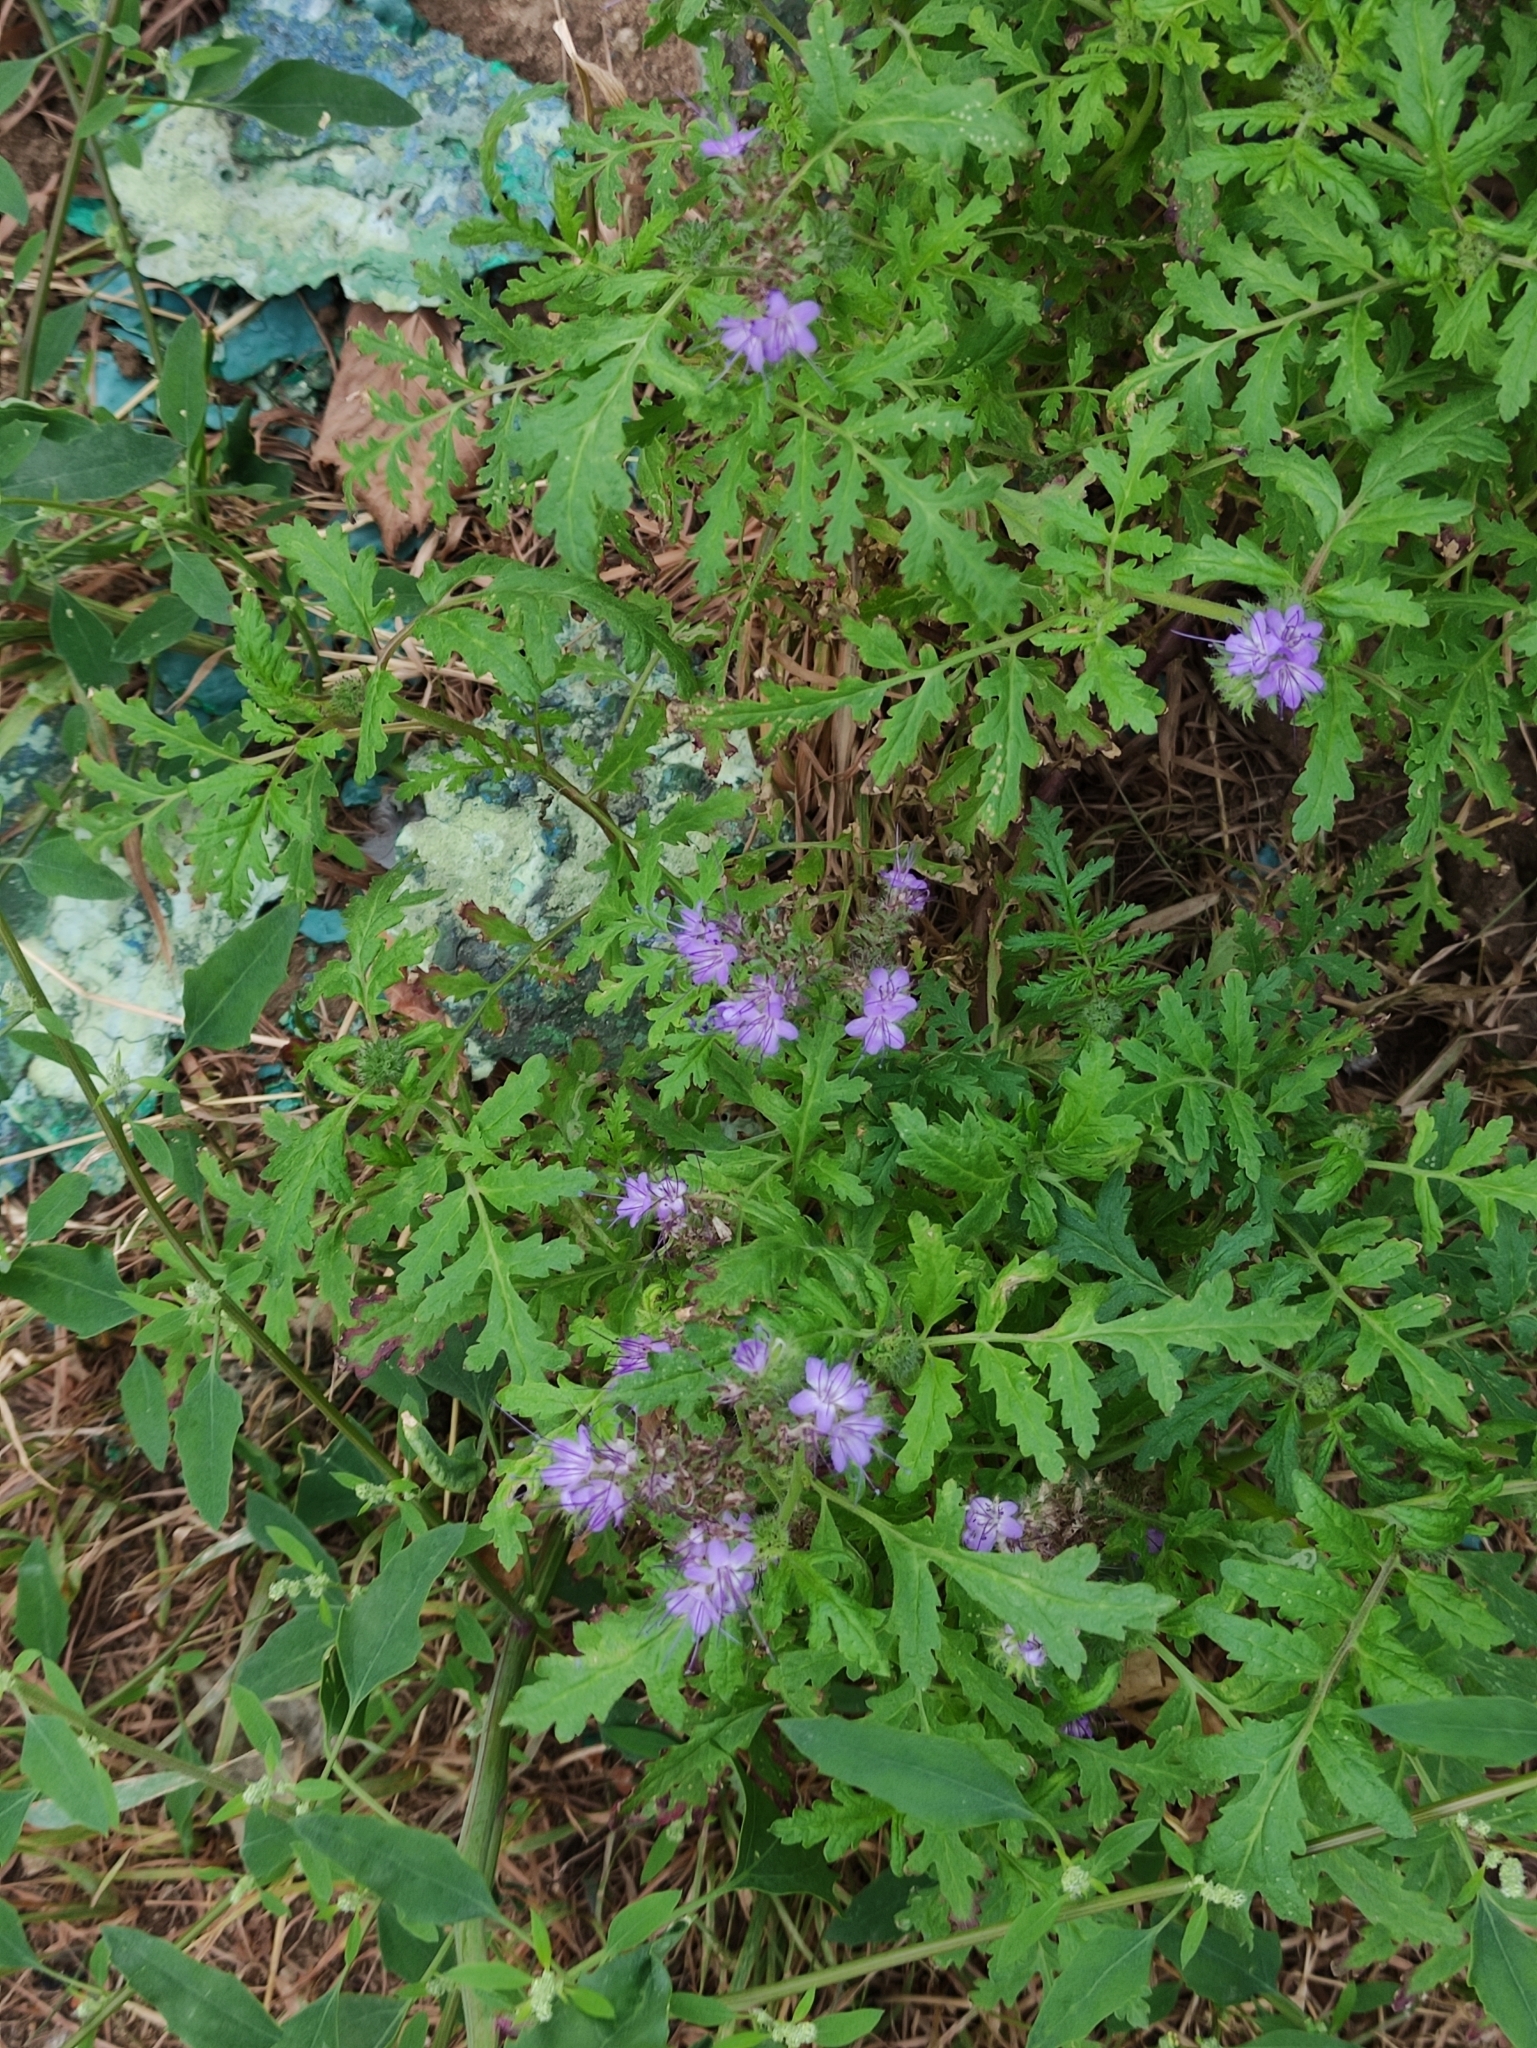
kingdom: Plantae
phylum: Tracheophyta
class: Magnoliopsida
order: Boraginales
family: Hydrophyllaceae
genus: Phacelia
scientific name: Phacelia tanacetifolia
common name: Phacelia
